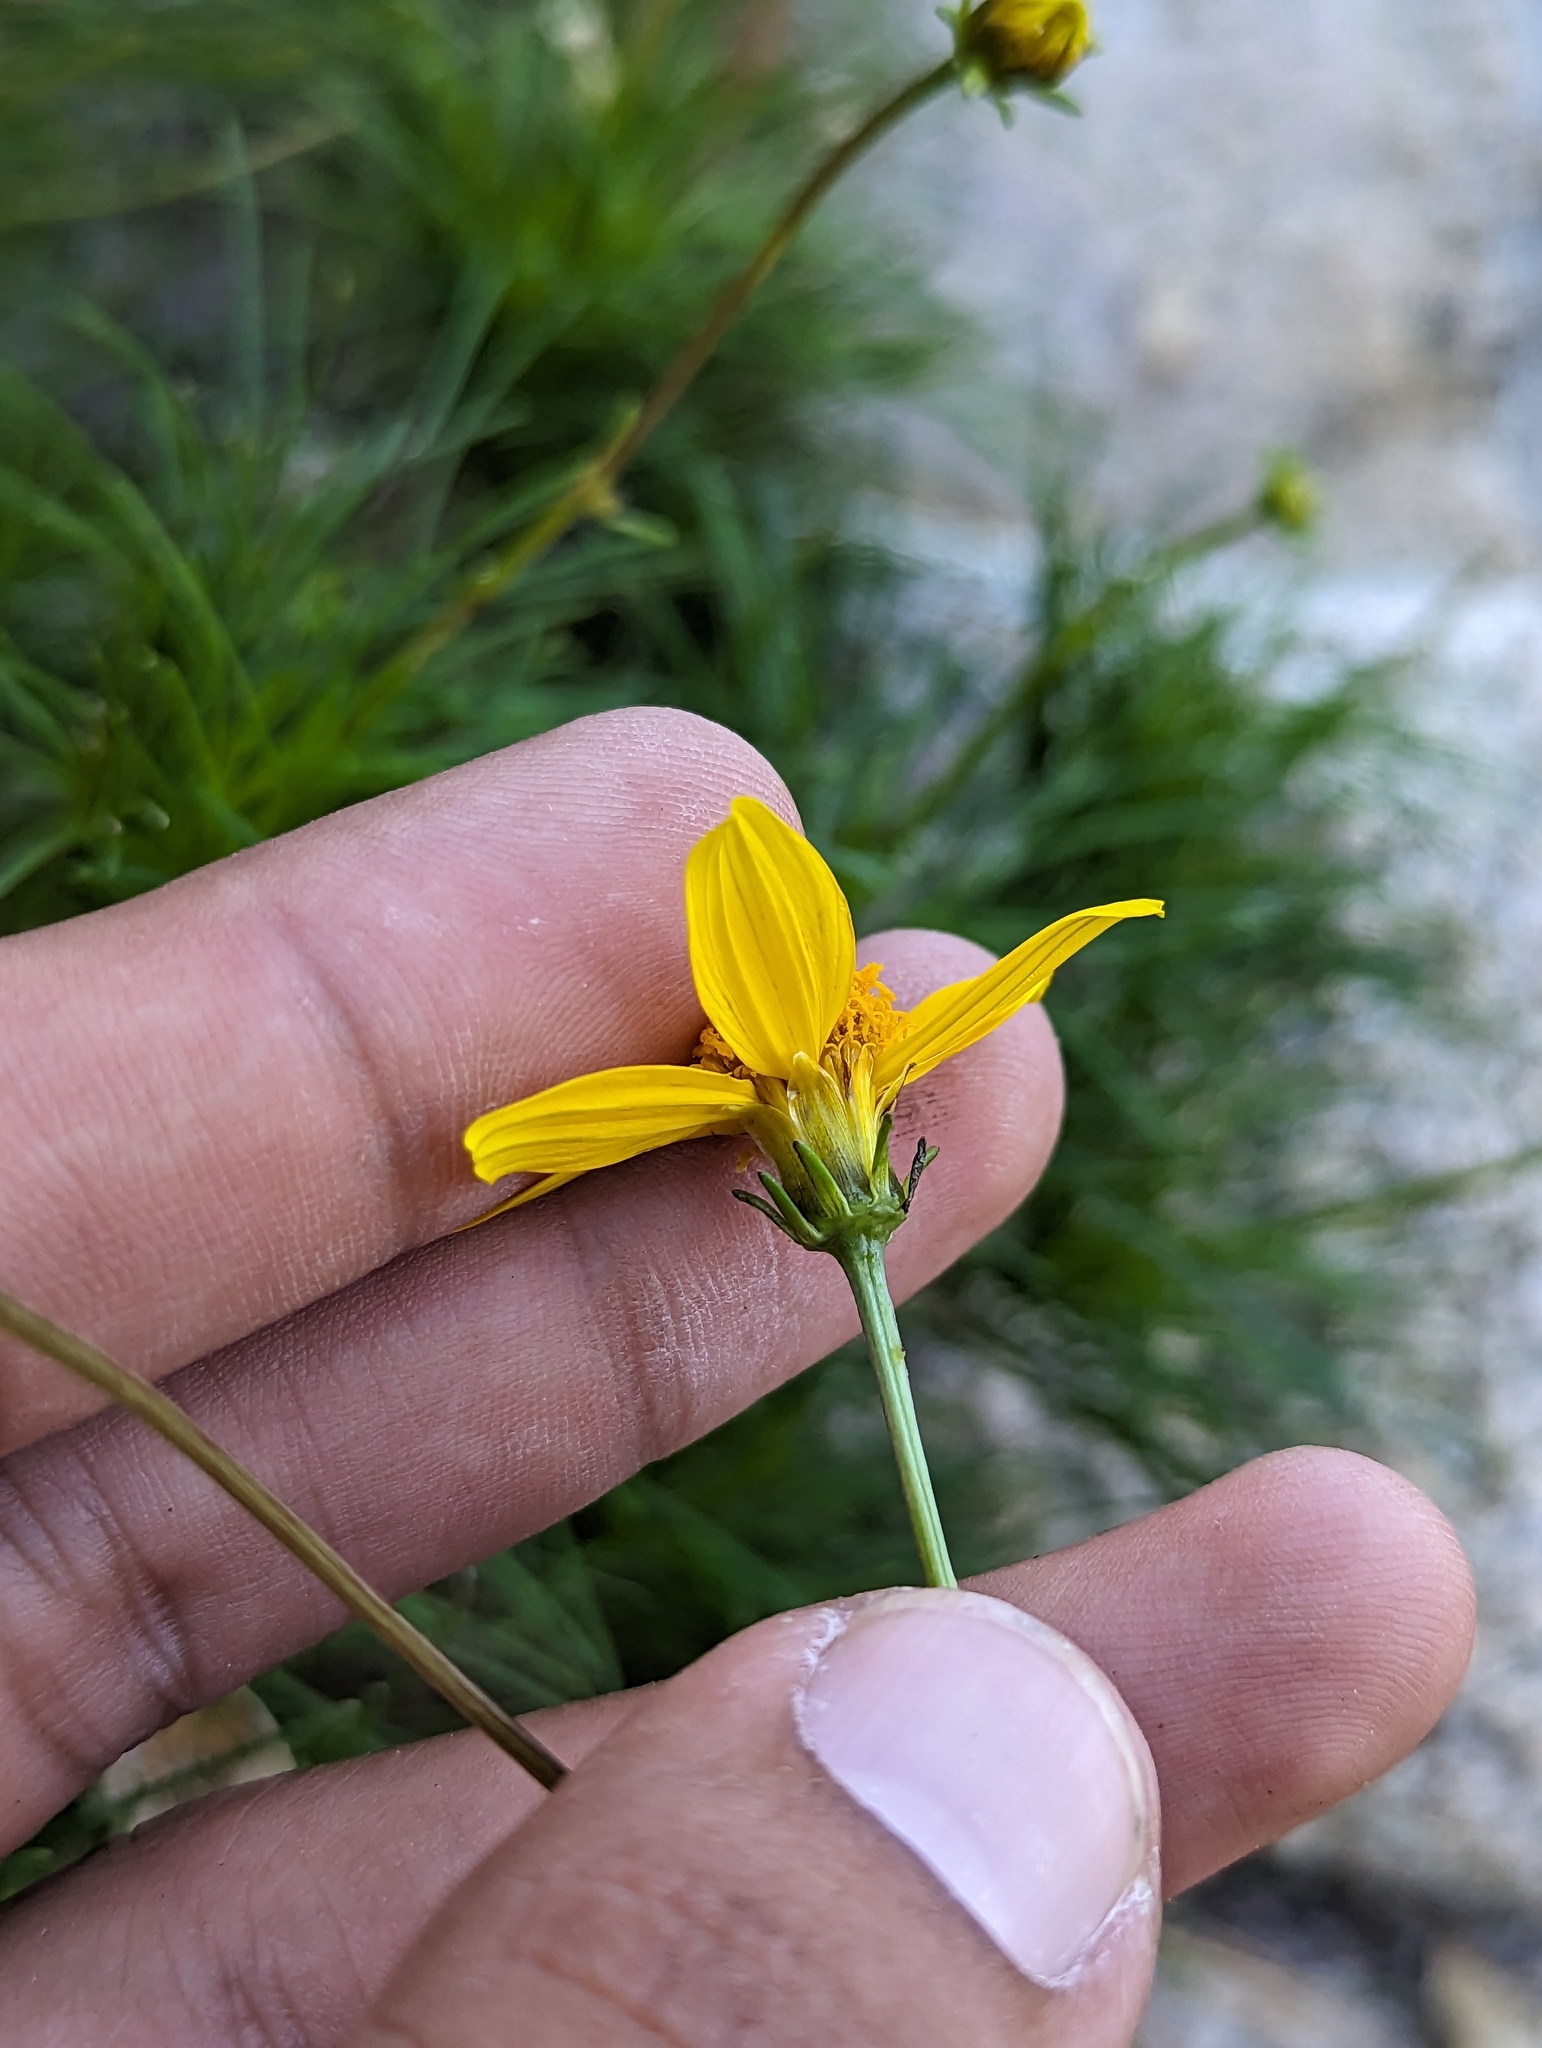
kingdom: Plantae
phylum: Tracheophyta
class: Magnoliopsida
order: Asterales
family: Asteraceae
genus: Bidens
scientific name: Bidens nudata
